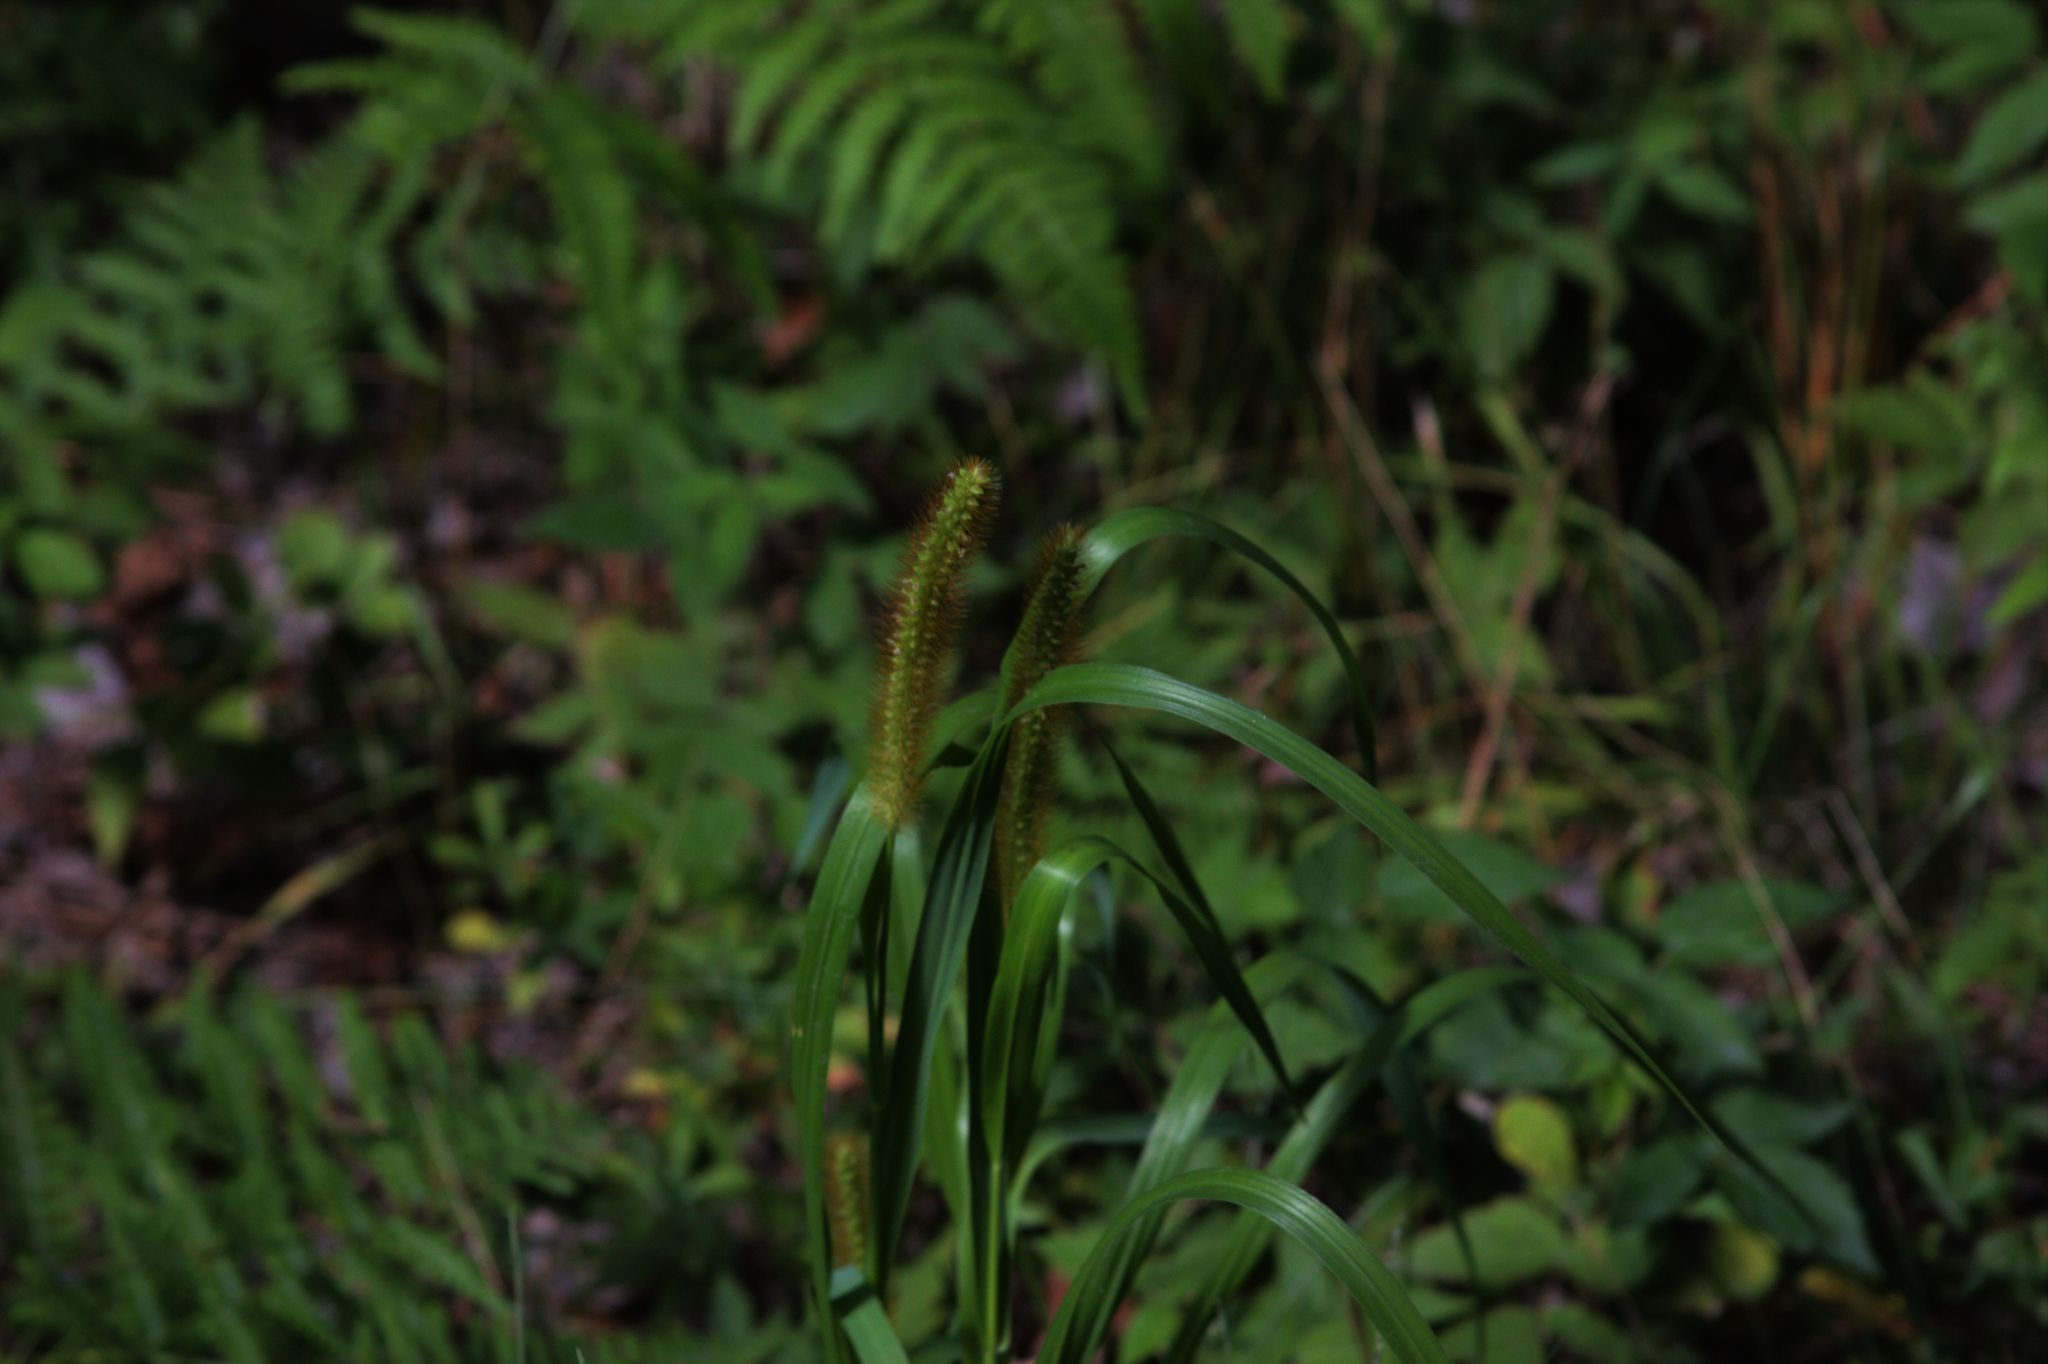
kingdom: Plantae
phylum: Tracheophyta
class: Liliopsida
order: Poales
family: Poaceae
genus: Setaria
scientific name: Setaria pumila
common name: Yellow bristle-grass
